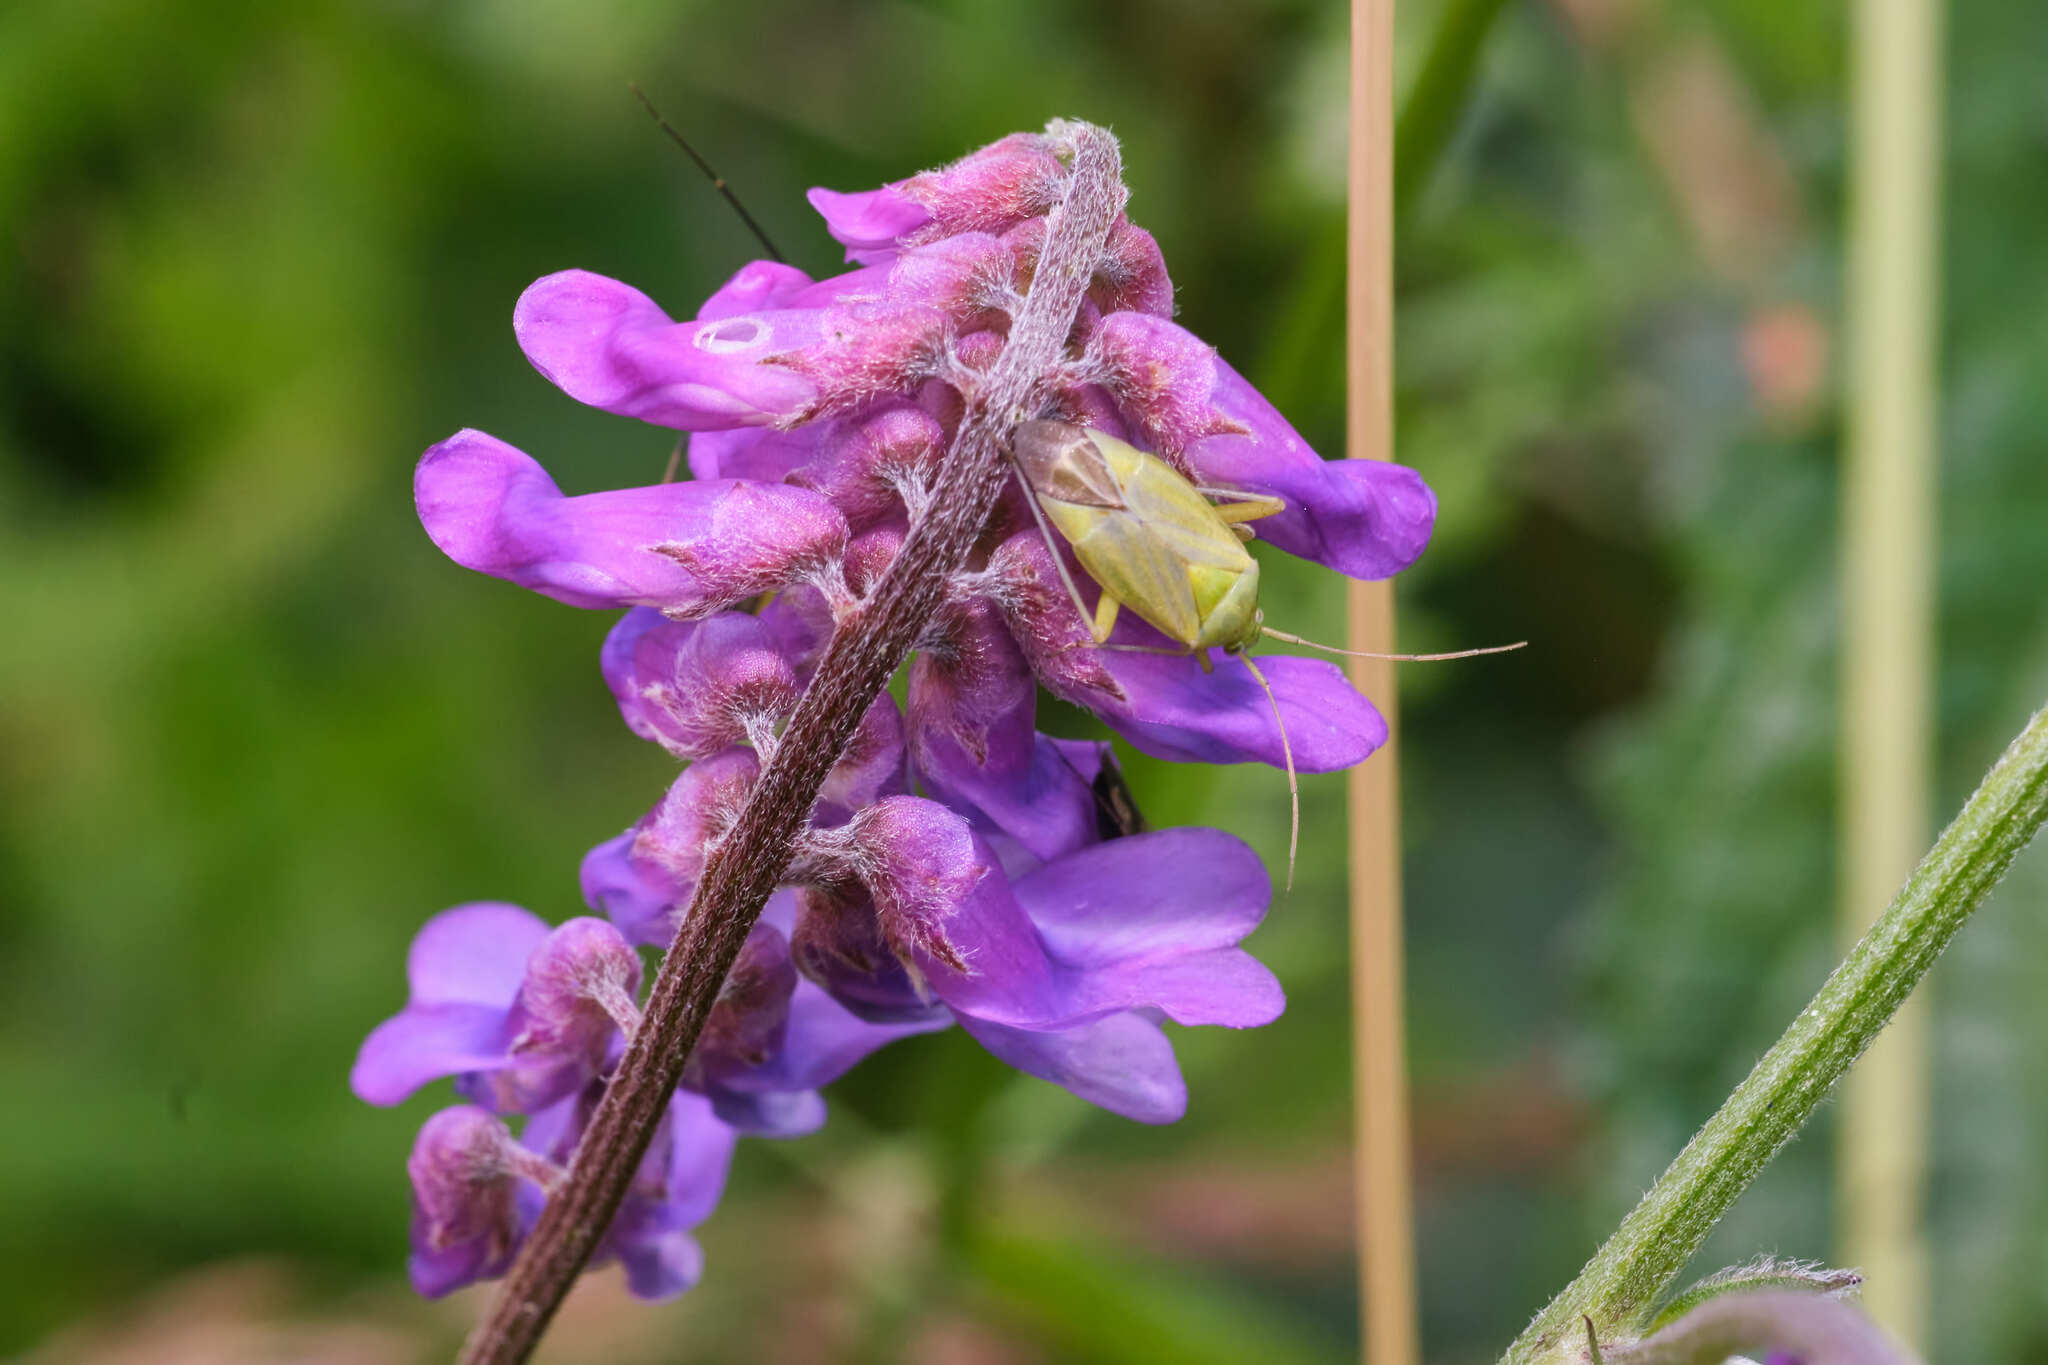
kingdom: Plantae
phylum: Tracheophyta
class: Magnoliopsida
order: Fabales
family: Fabaceae
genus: Vicia
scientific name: Vicia cracca
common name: Bird vetch
